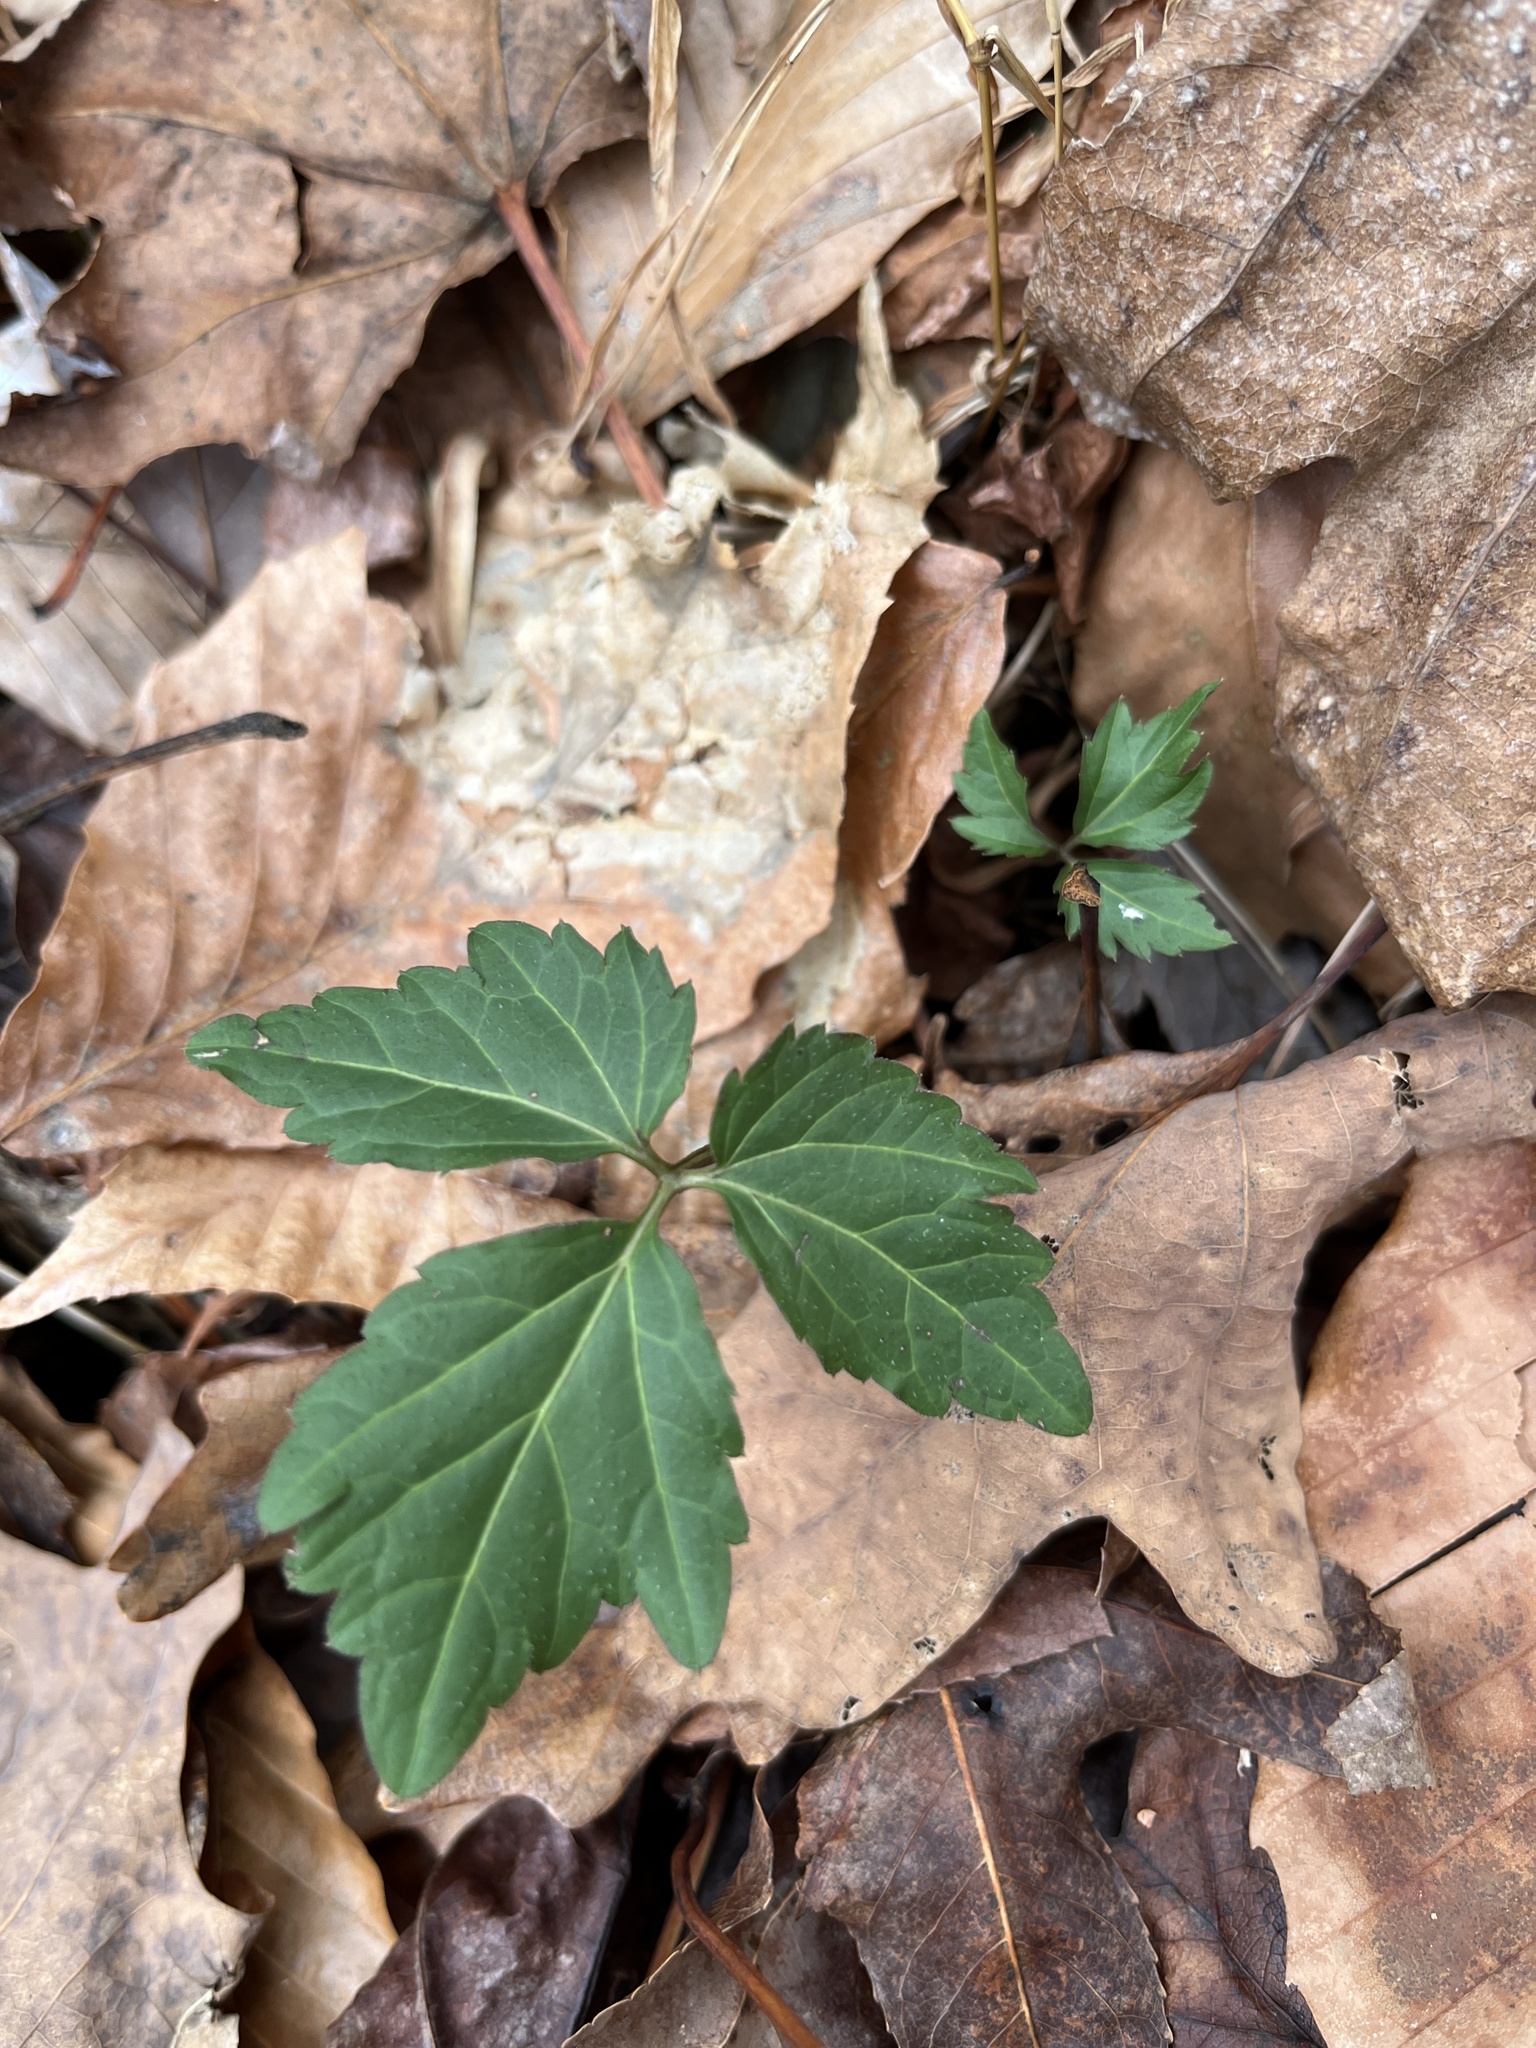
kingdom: Plantae
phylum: Tracheophyta
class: Magnoliopsida
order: Brassicales
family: Brassicaceae
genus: Cardamine
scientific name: Cardamine diphylla
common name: Broad-leaved toothwort
